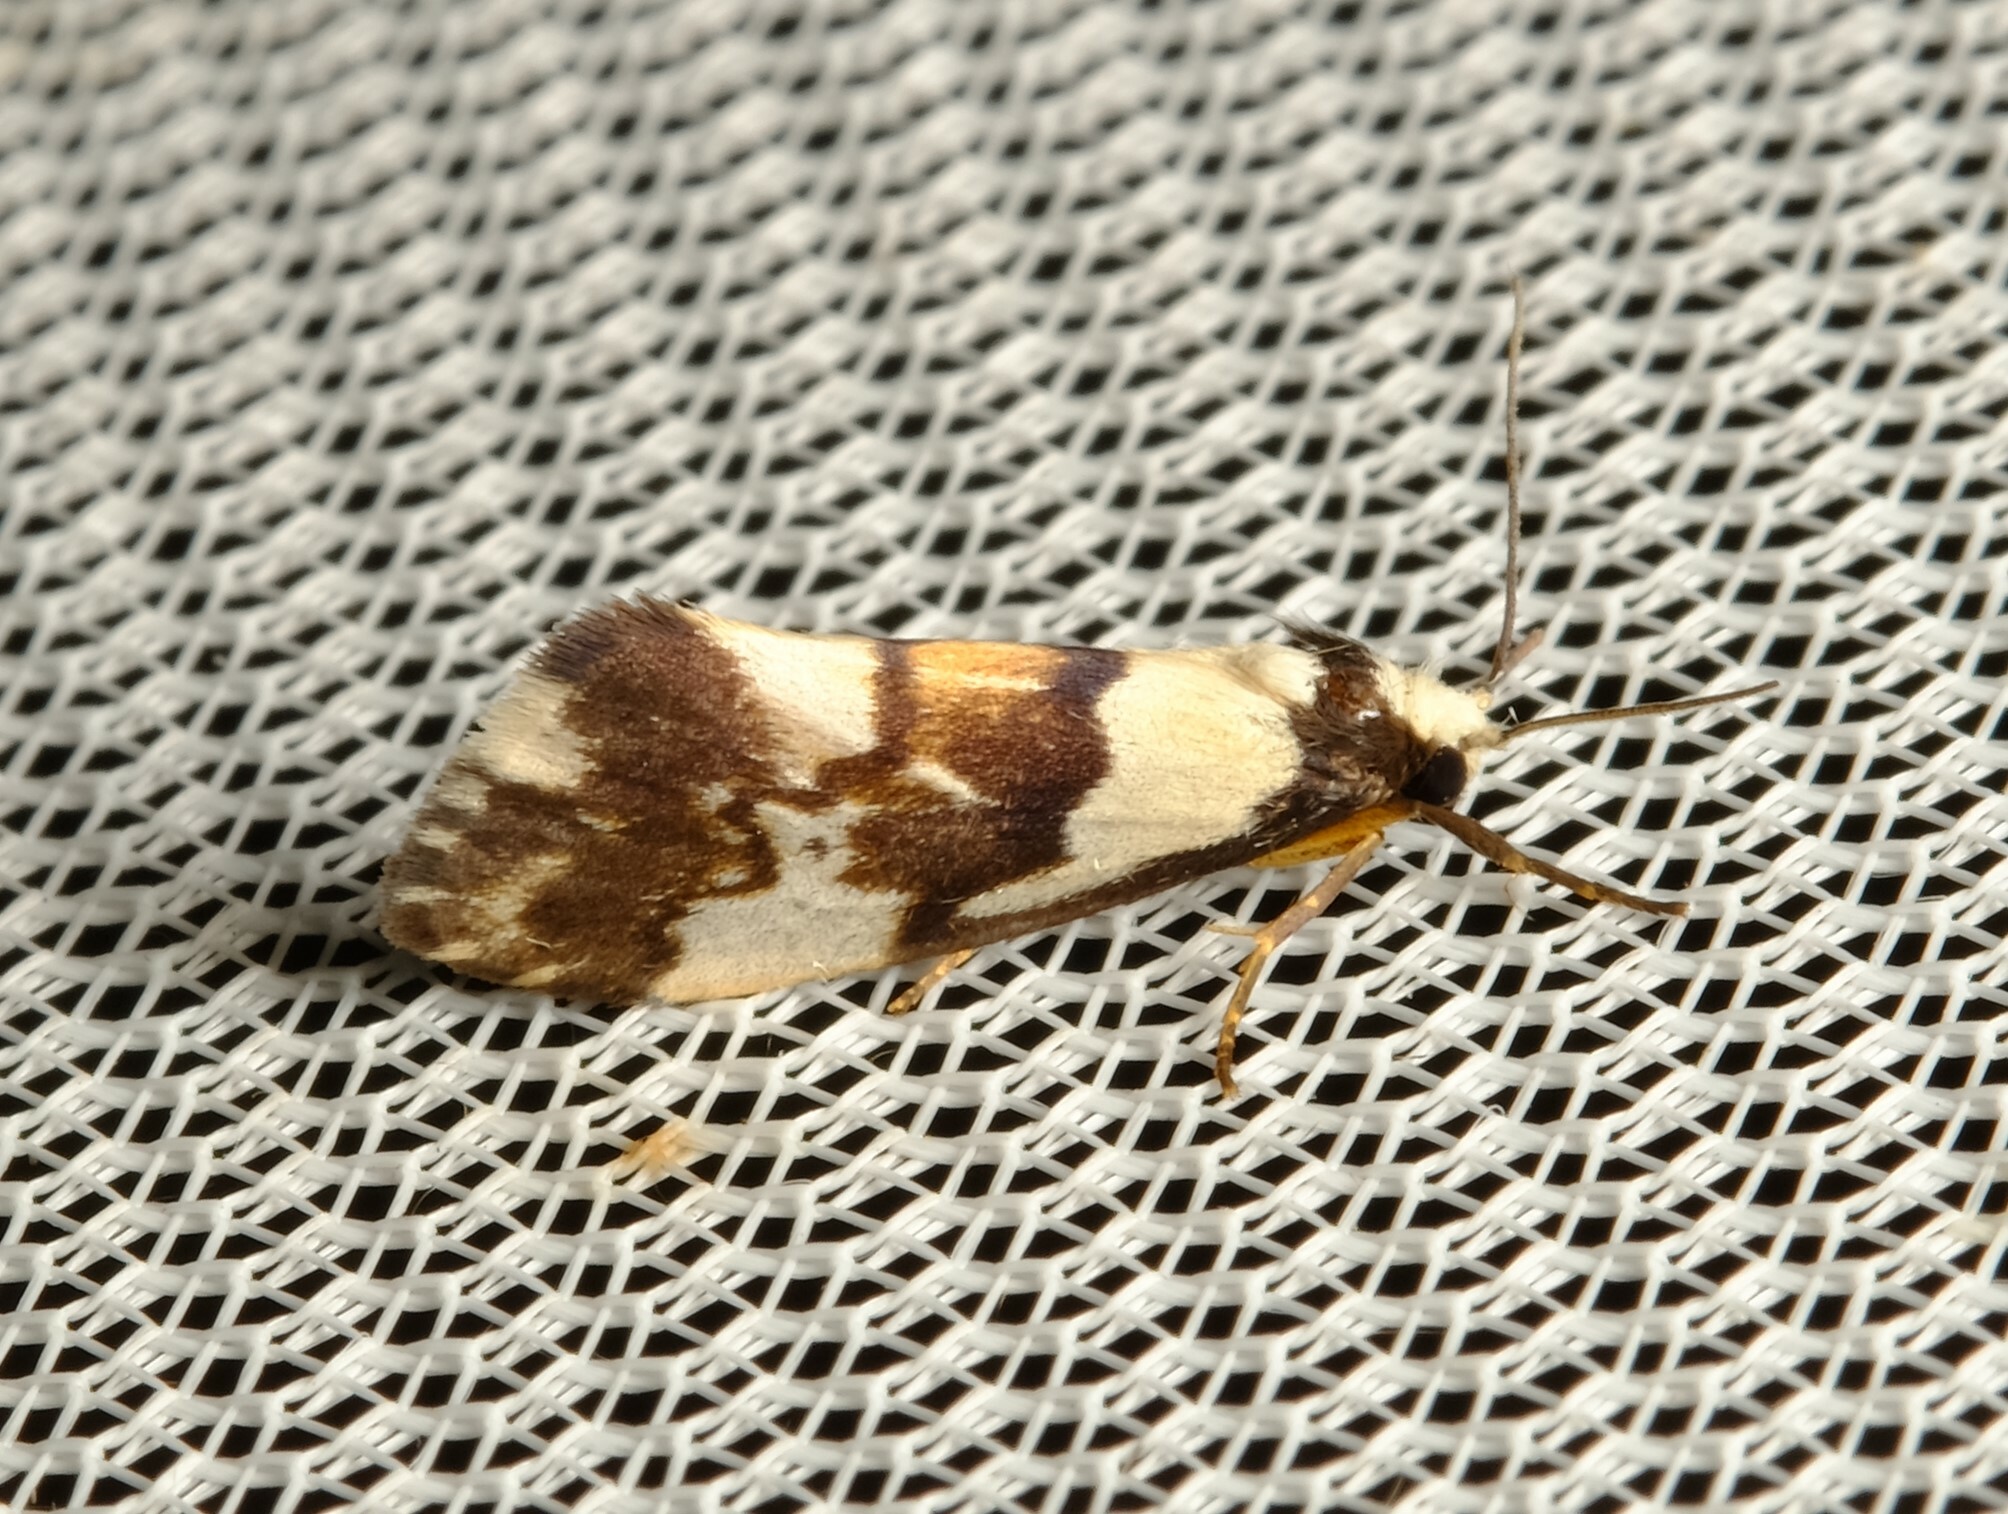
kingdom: Animalia
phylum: Arthropoda
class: Insecta
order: Lepidoptera
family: Erebidae
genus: Philenora
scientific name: Philenora irregularis
